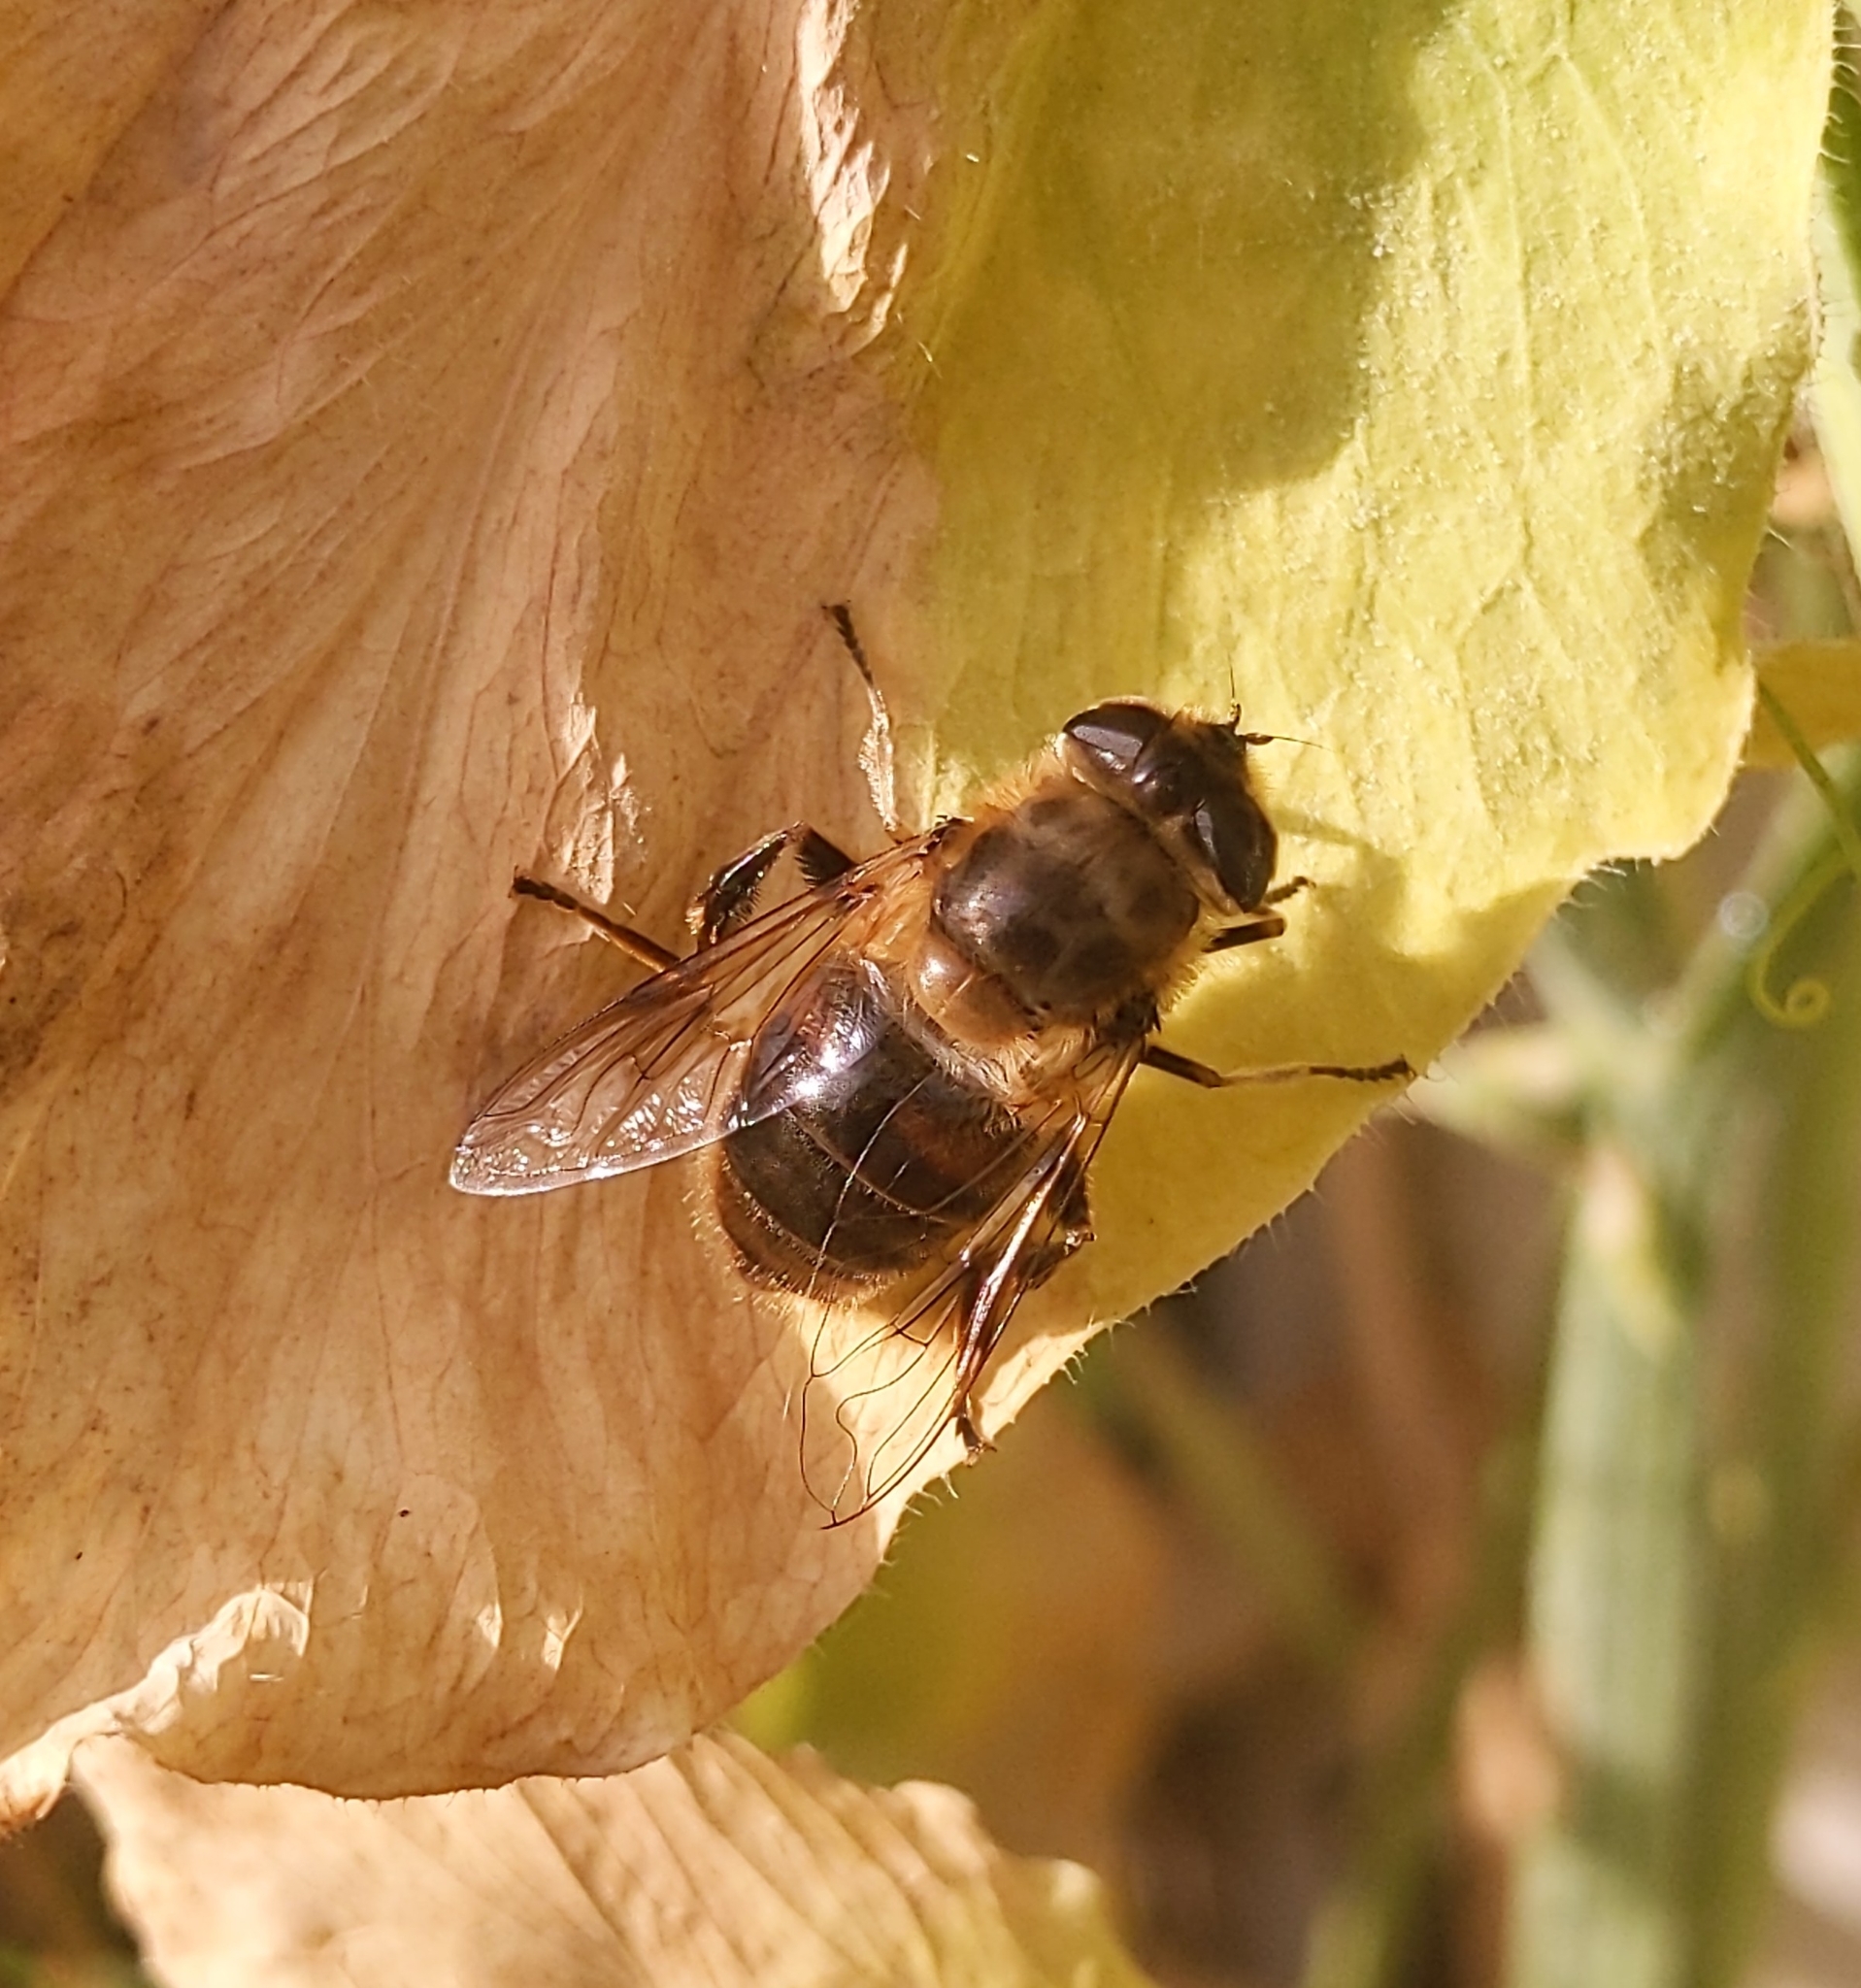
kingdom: Animalia
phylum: Arthropoda
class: Insecta
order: Diptera
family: Syrphidae
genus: Eristalis
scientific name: Eristalis tenax
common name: Drone fly
